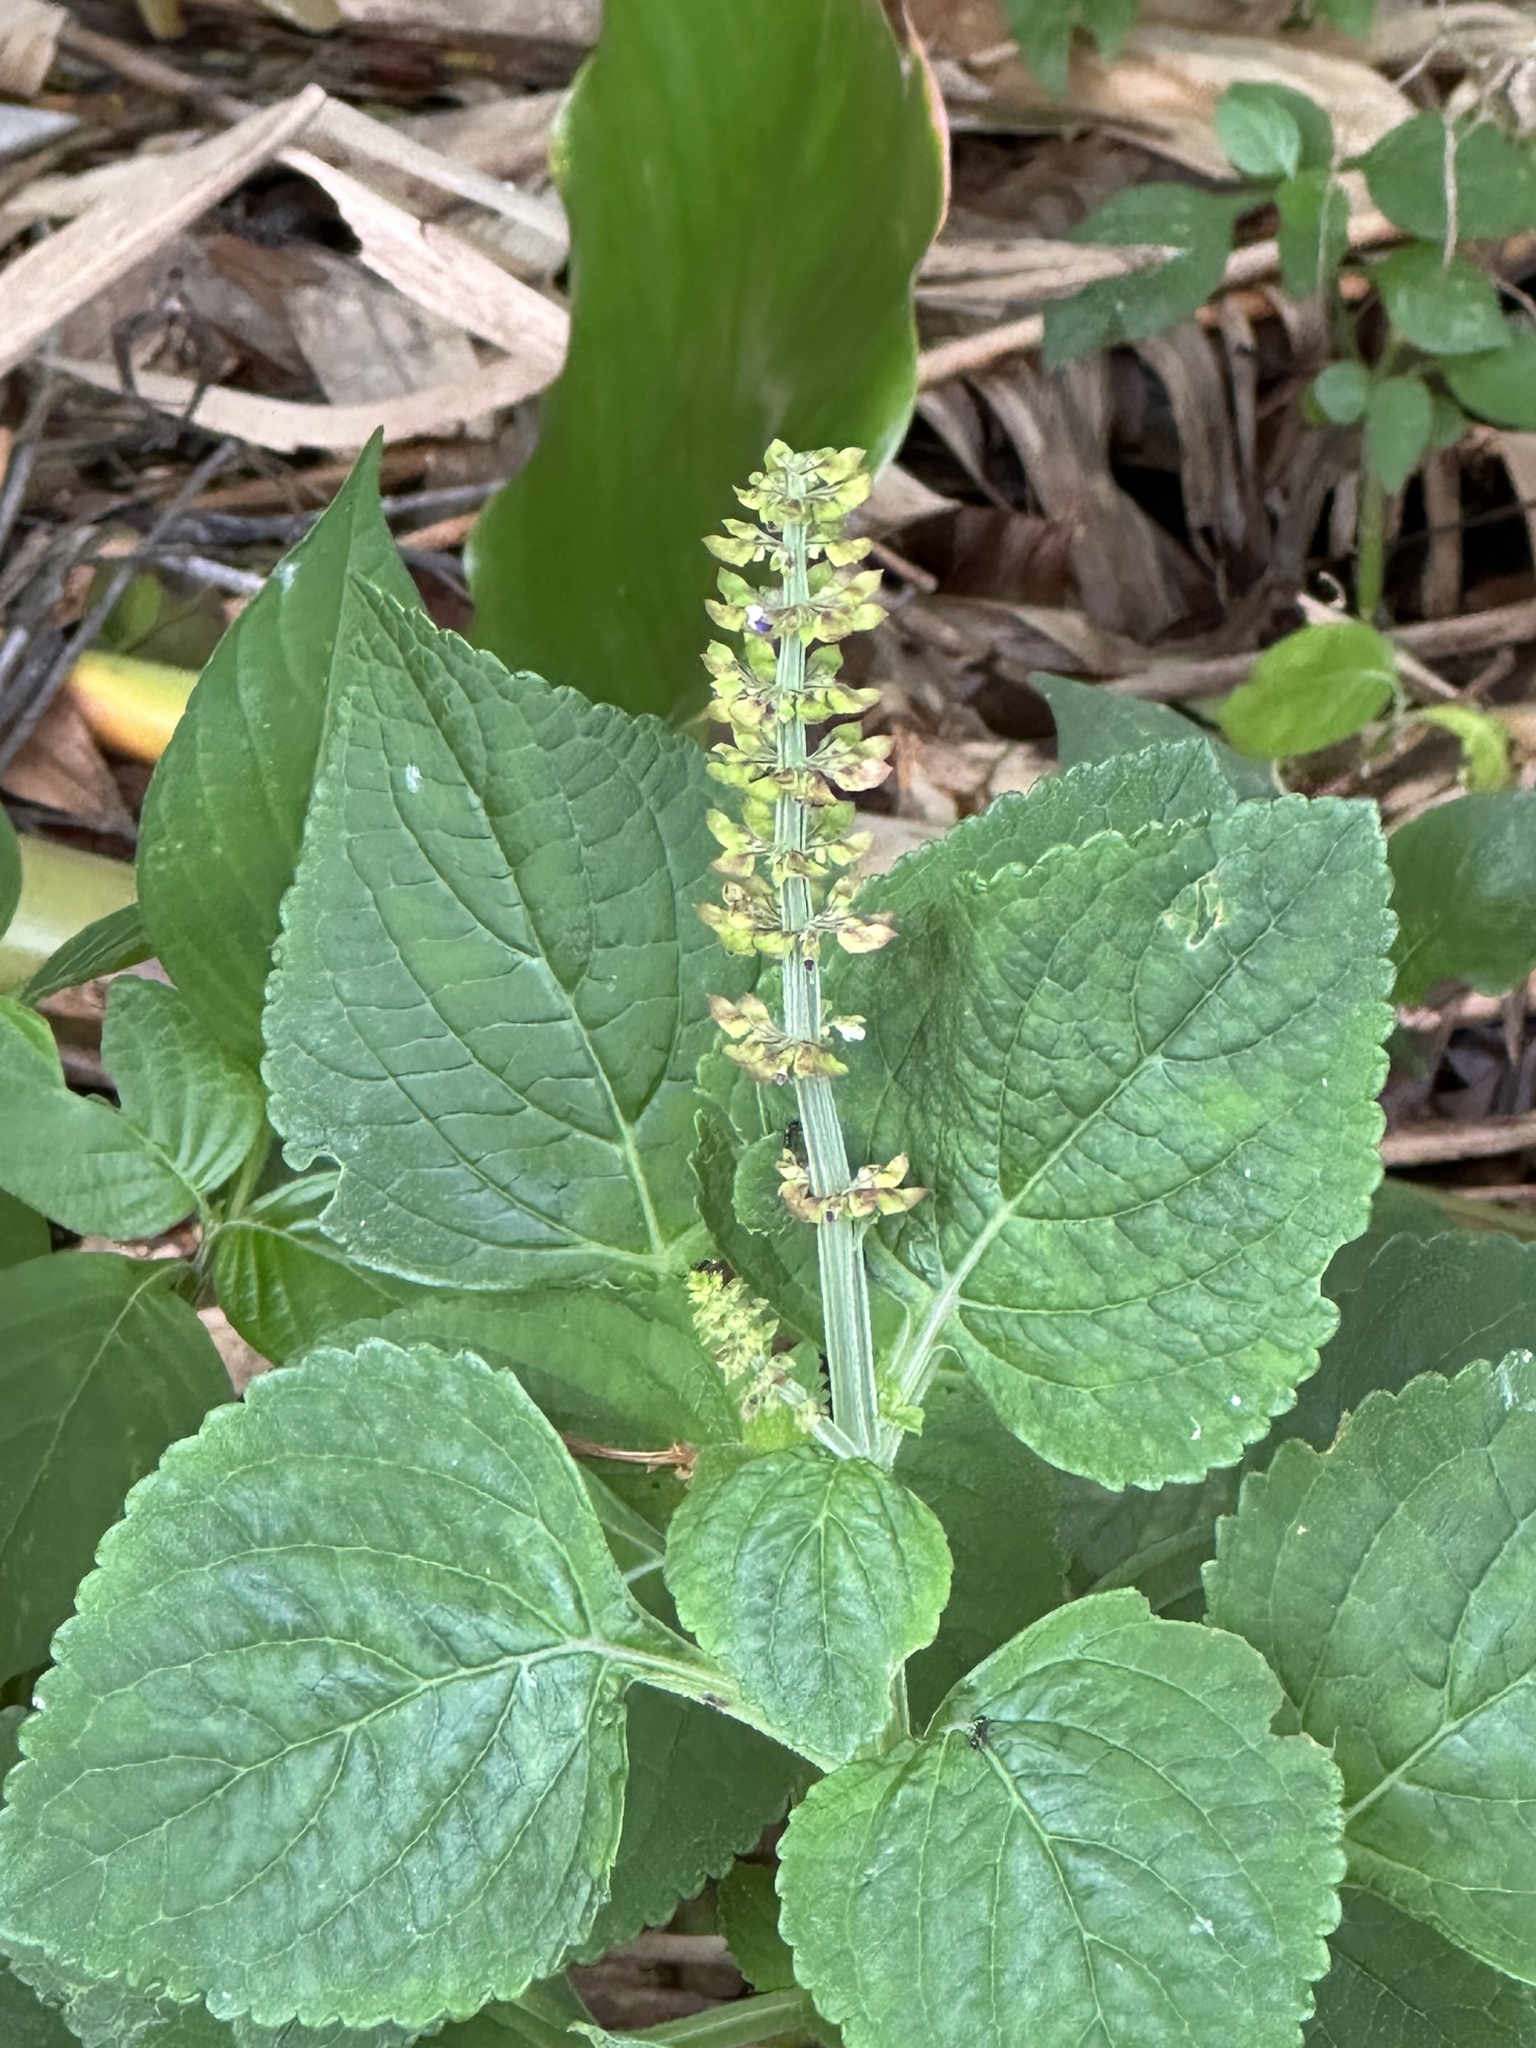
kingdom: Plantae
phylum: Tracheophyta
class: Magnoliopsida
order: Lamiales
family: Lamiaceae
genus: Coleus
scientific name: Coleus monostachyus
